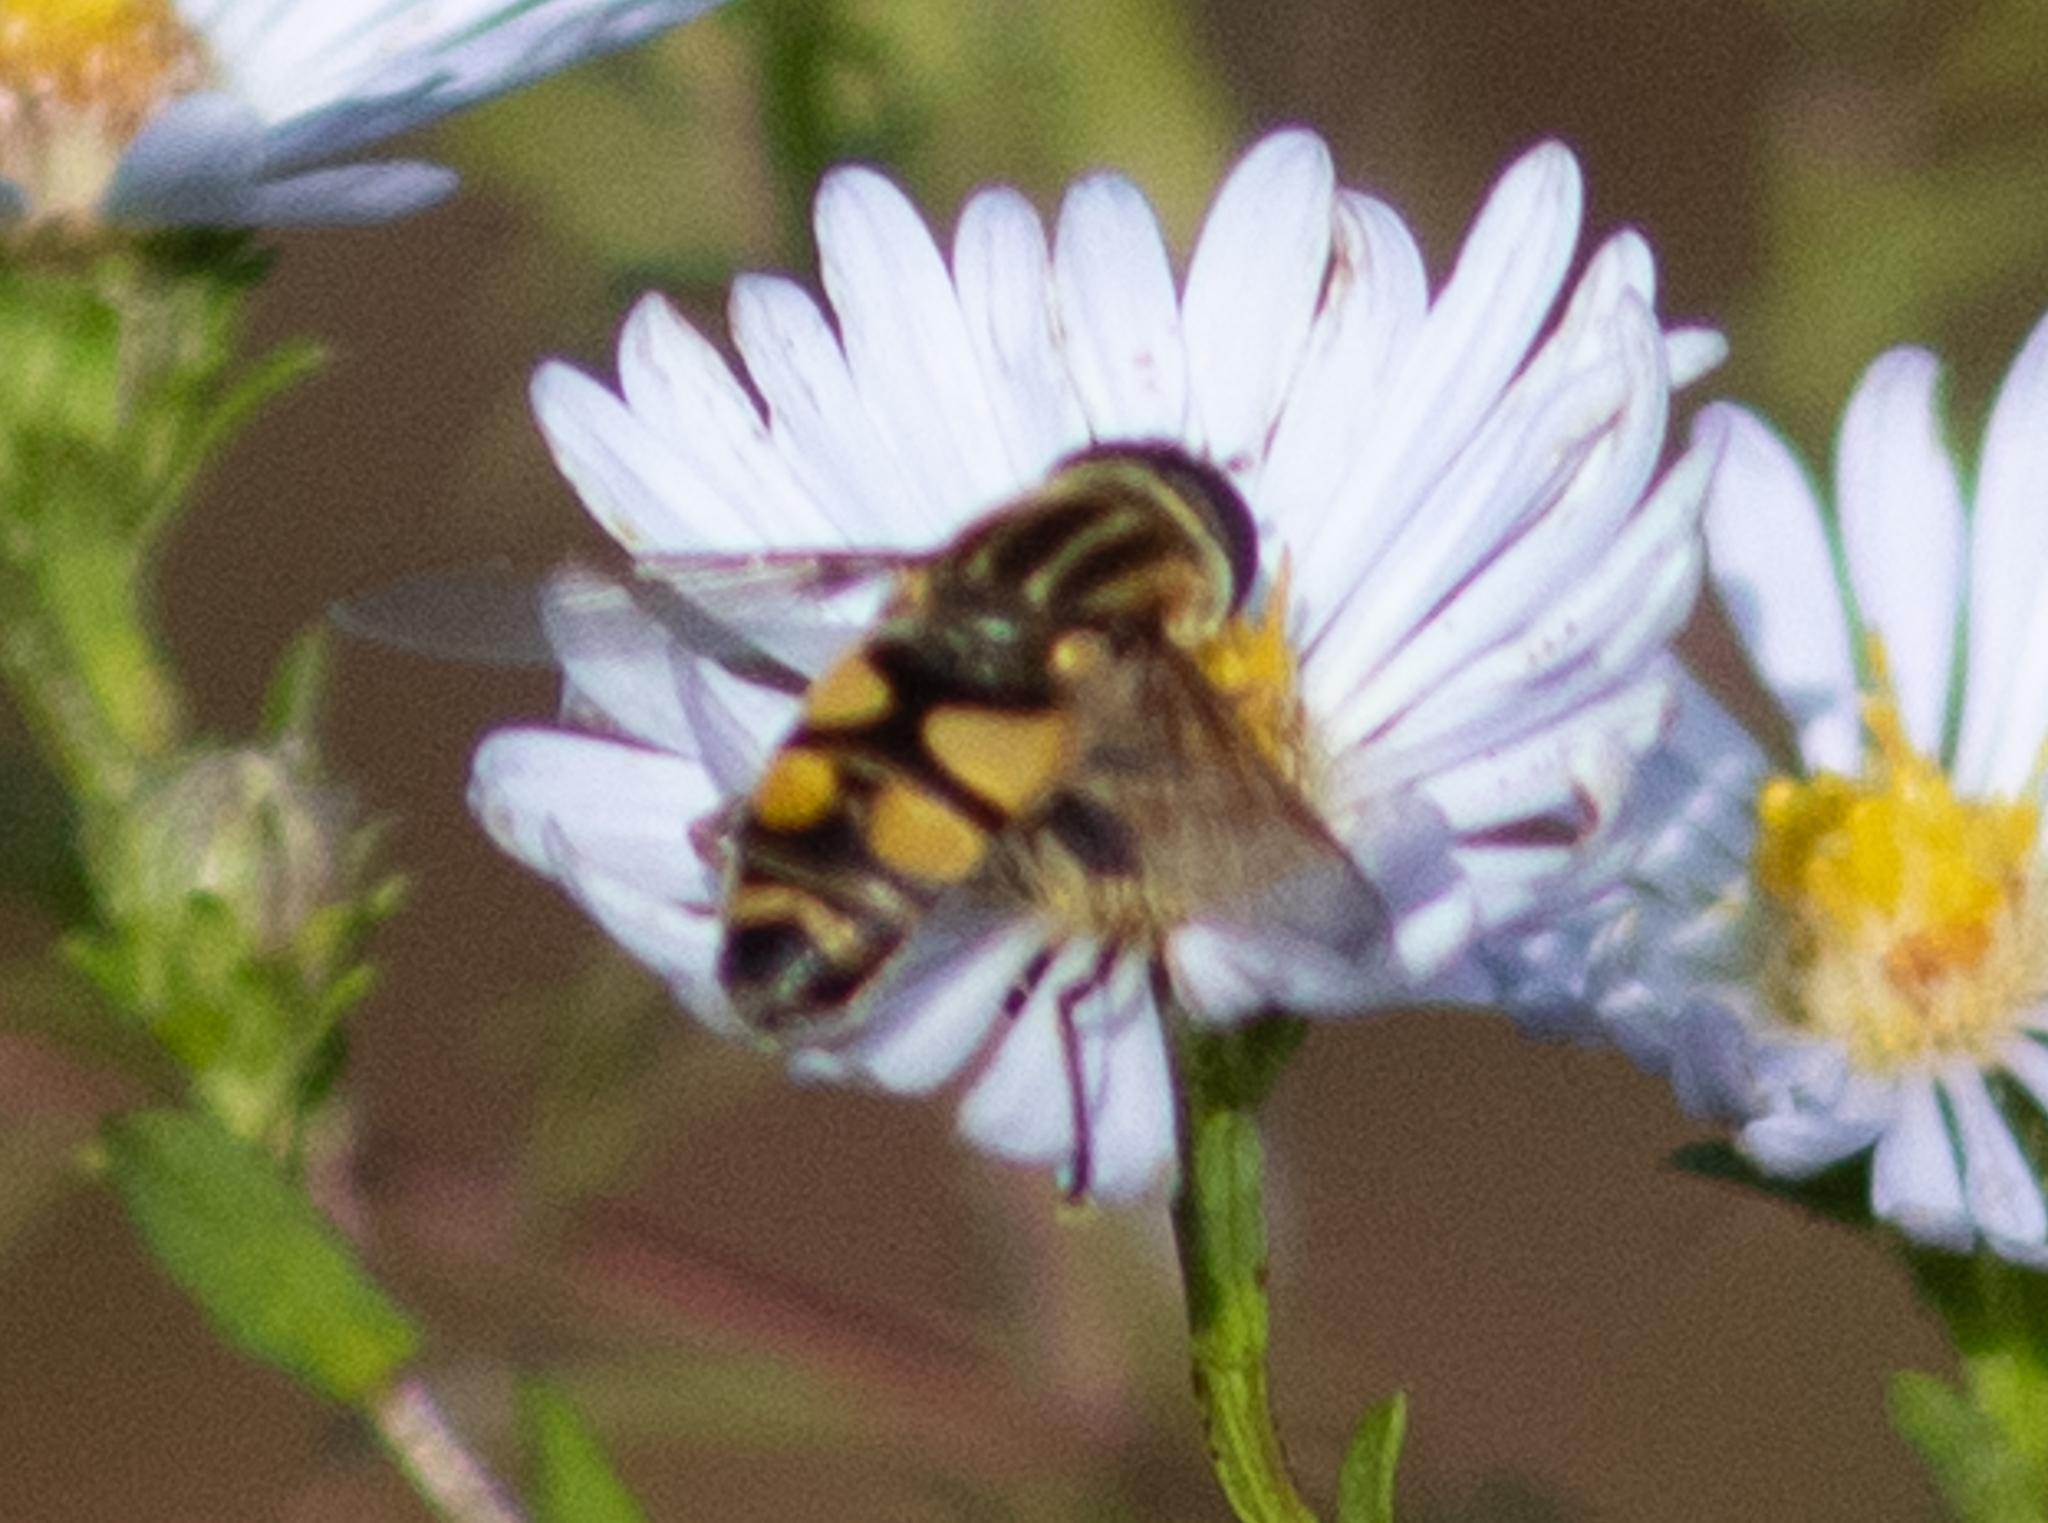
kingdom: Animalia
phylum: Arthropoda
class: Insecta
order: Diptera
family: Syrphidae
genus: Helophilus
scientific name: Helophilus fasciatus
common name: Narrow-headed marsh fly
